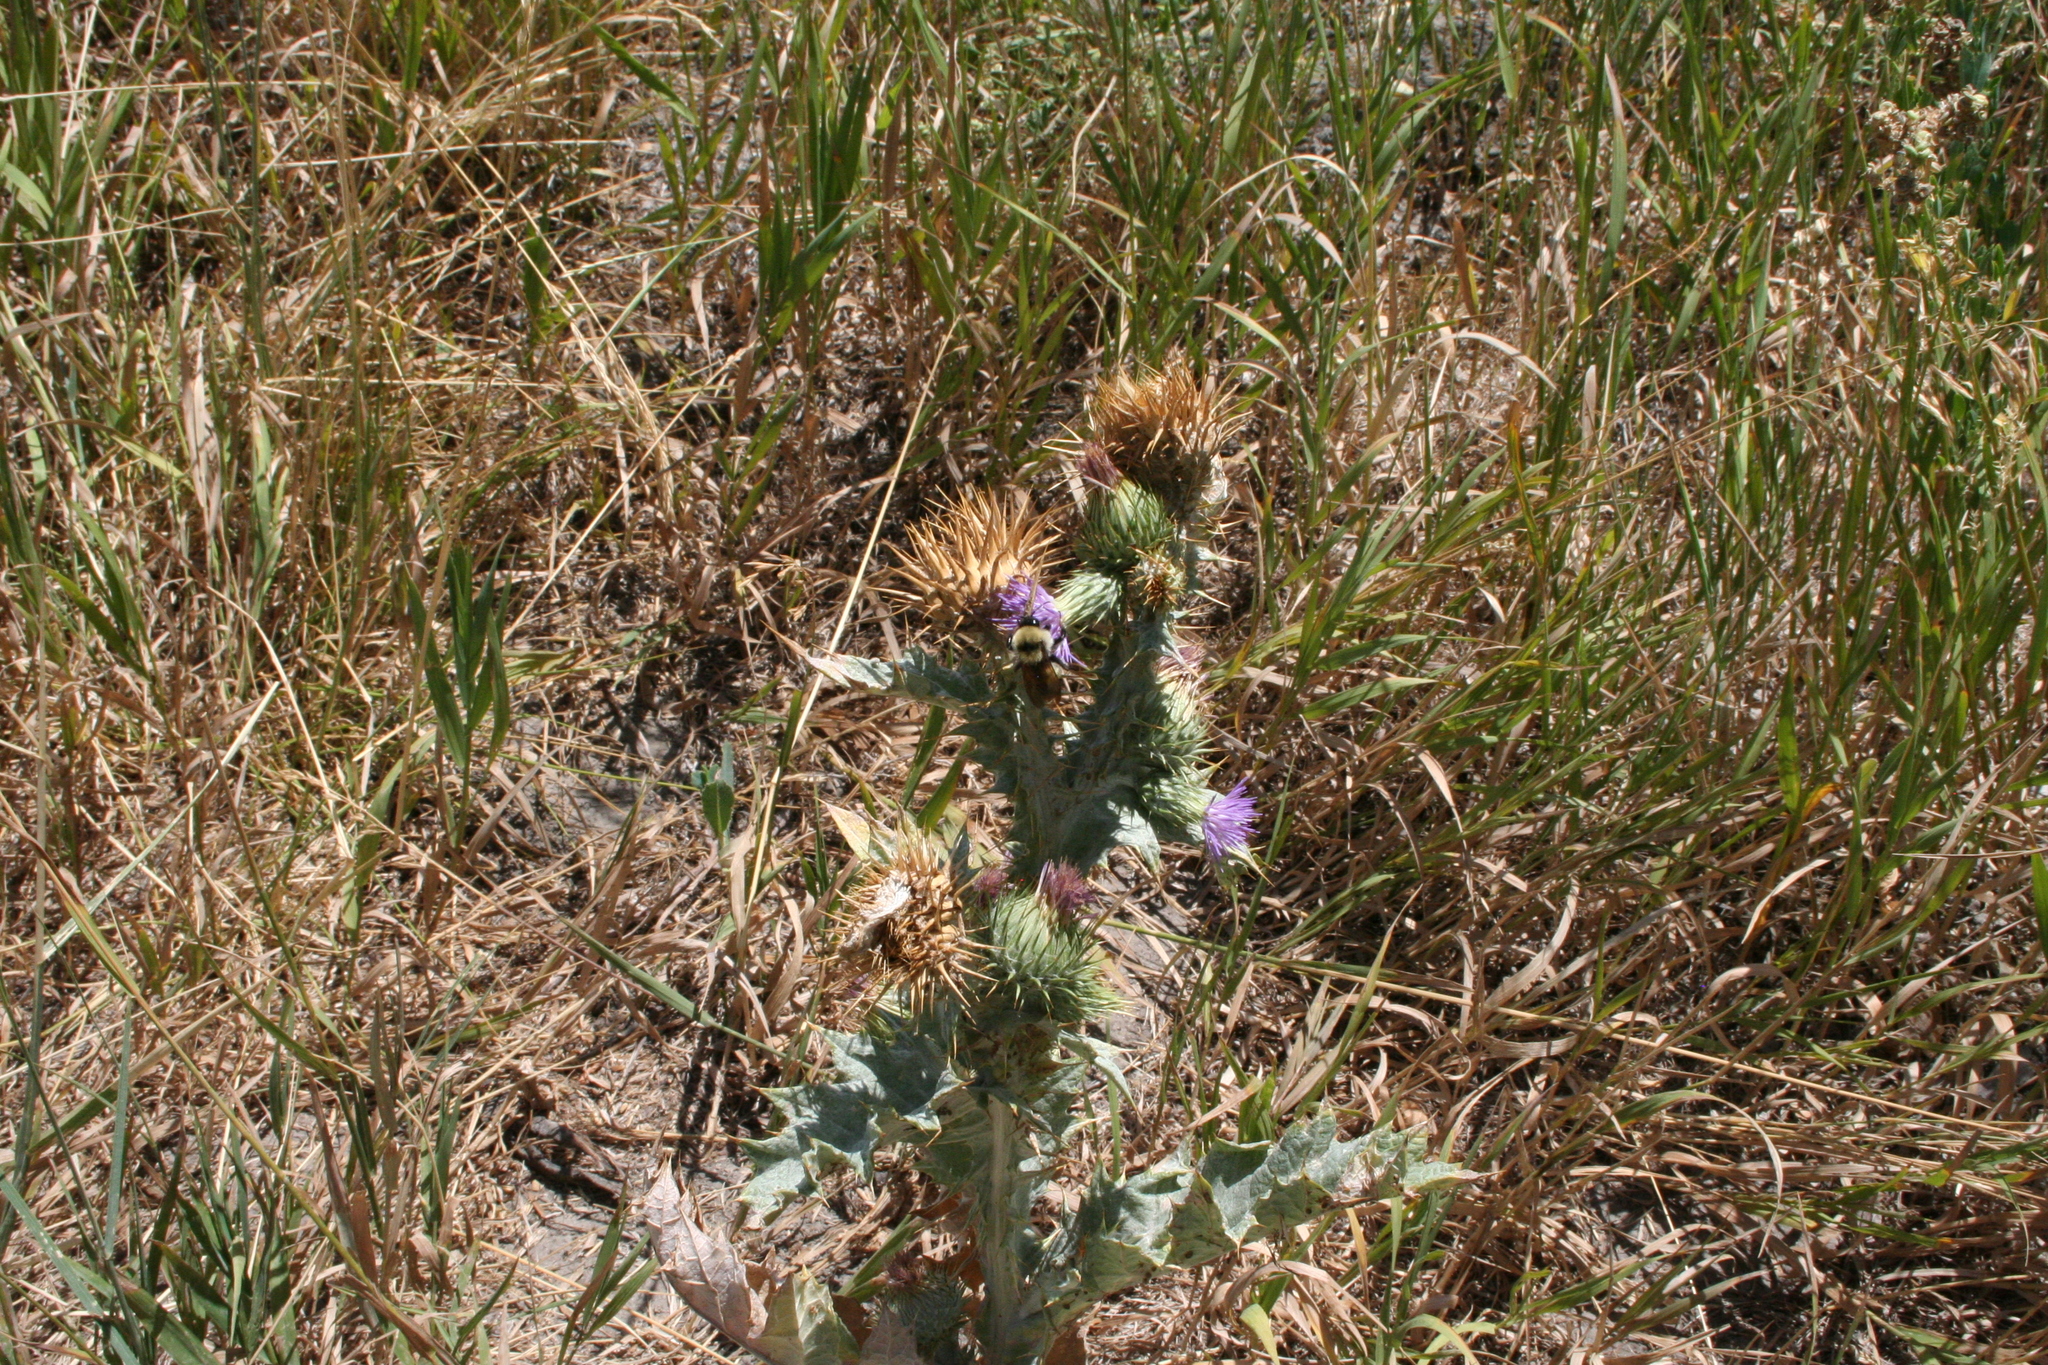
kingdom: Animalia
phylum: Arthropoda
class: Insecta
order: Hymenoptera
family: Apidae
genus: Bombus
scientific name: Bombus fervidus
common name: Yellow bumble bee
